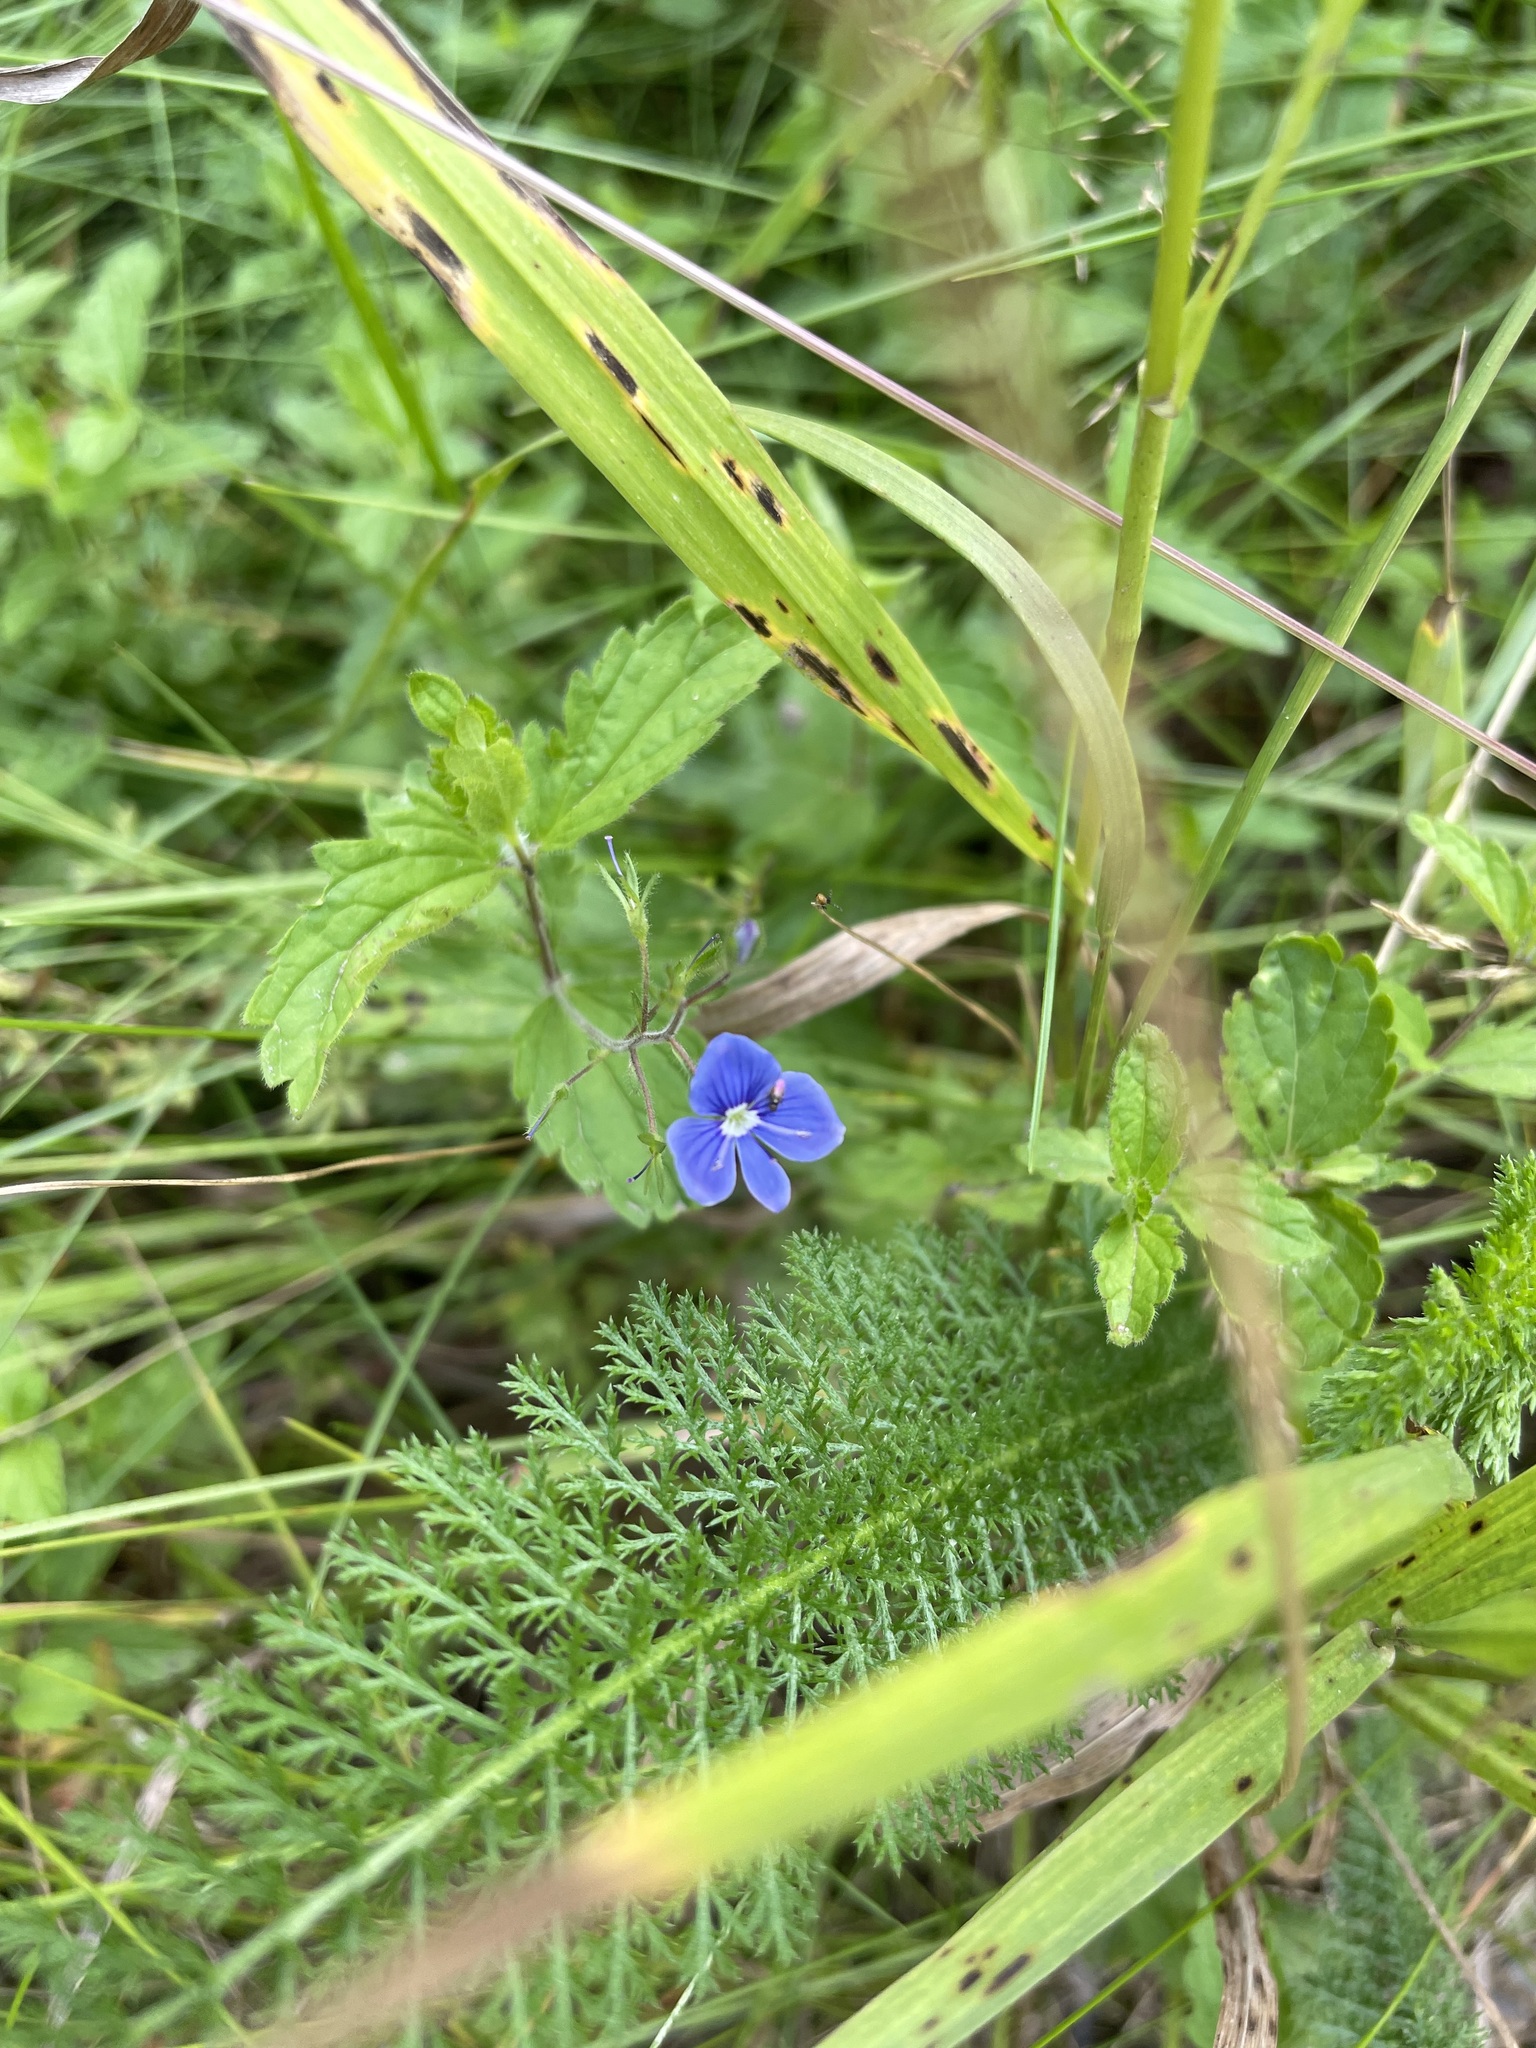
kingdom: Plantae
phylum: Tracheophyta
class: Magnoliopsida
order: Lamiales
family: Plantaginaceae
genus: Veronica
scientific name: Veronica chamaedrys
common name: Germander speedwell
